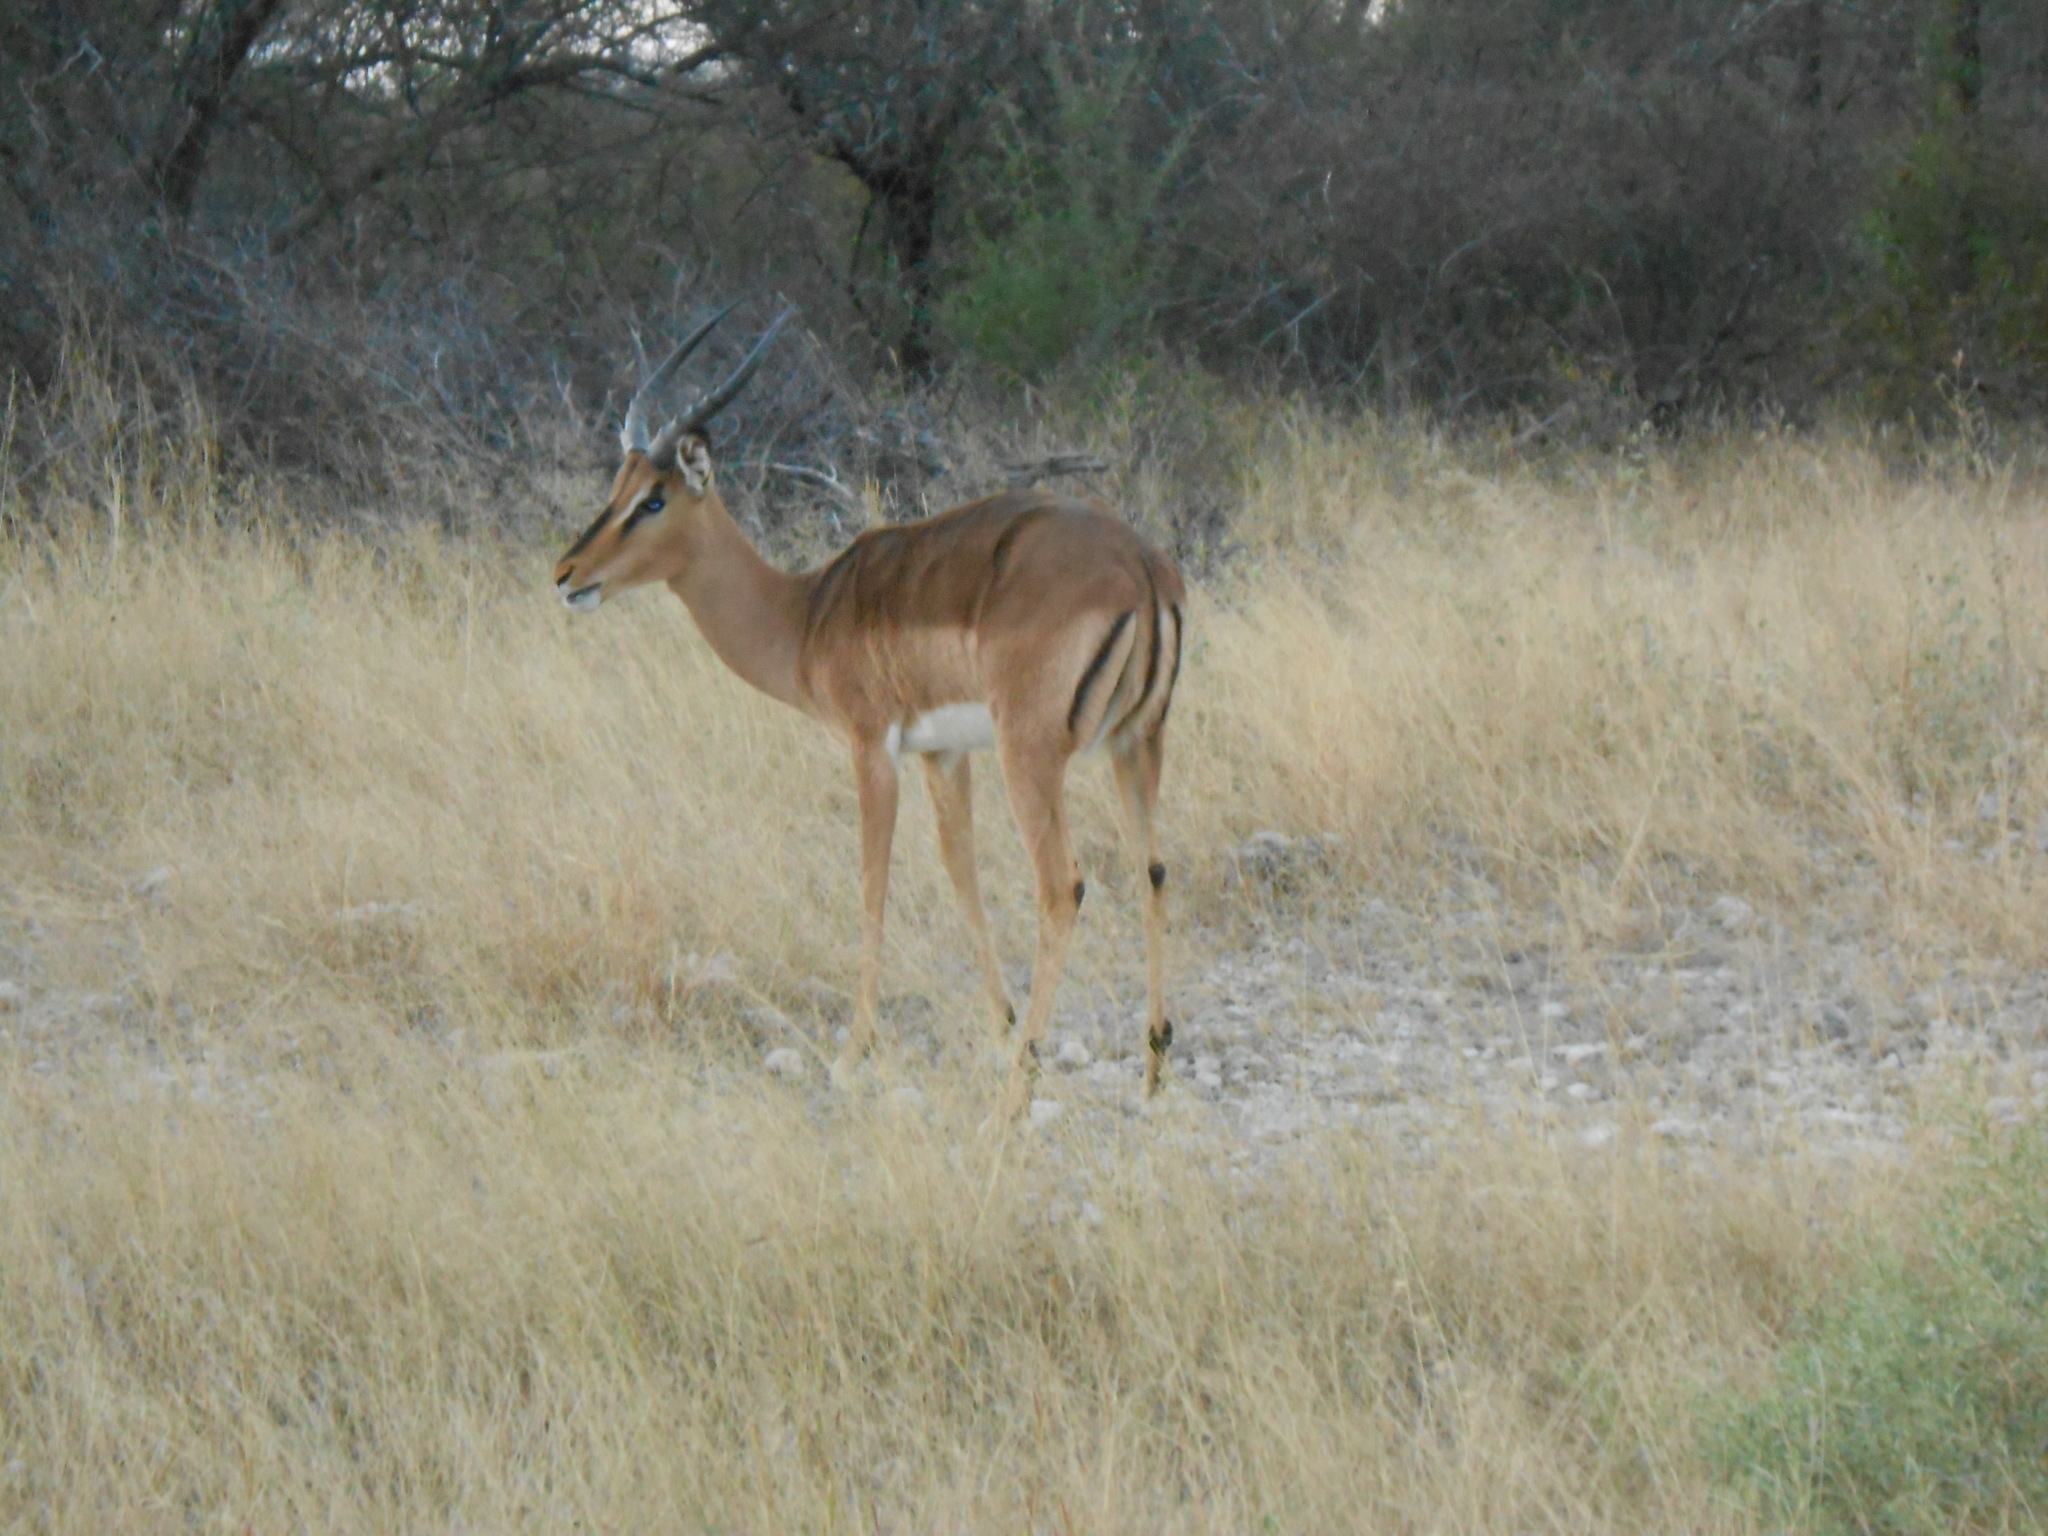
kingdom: Animalia
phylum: Chordata
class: Mammalia
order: Artiodactyla
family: Bovidae
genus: Aepyceros
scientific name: Aepyceros melampus
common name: Impala
